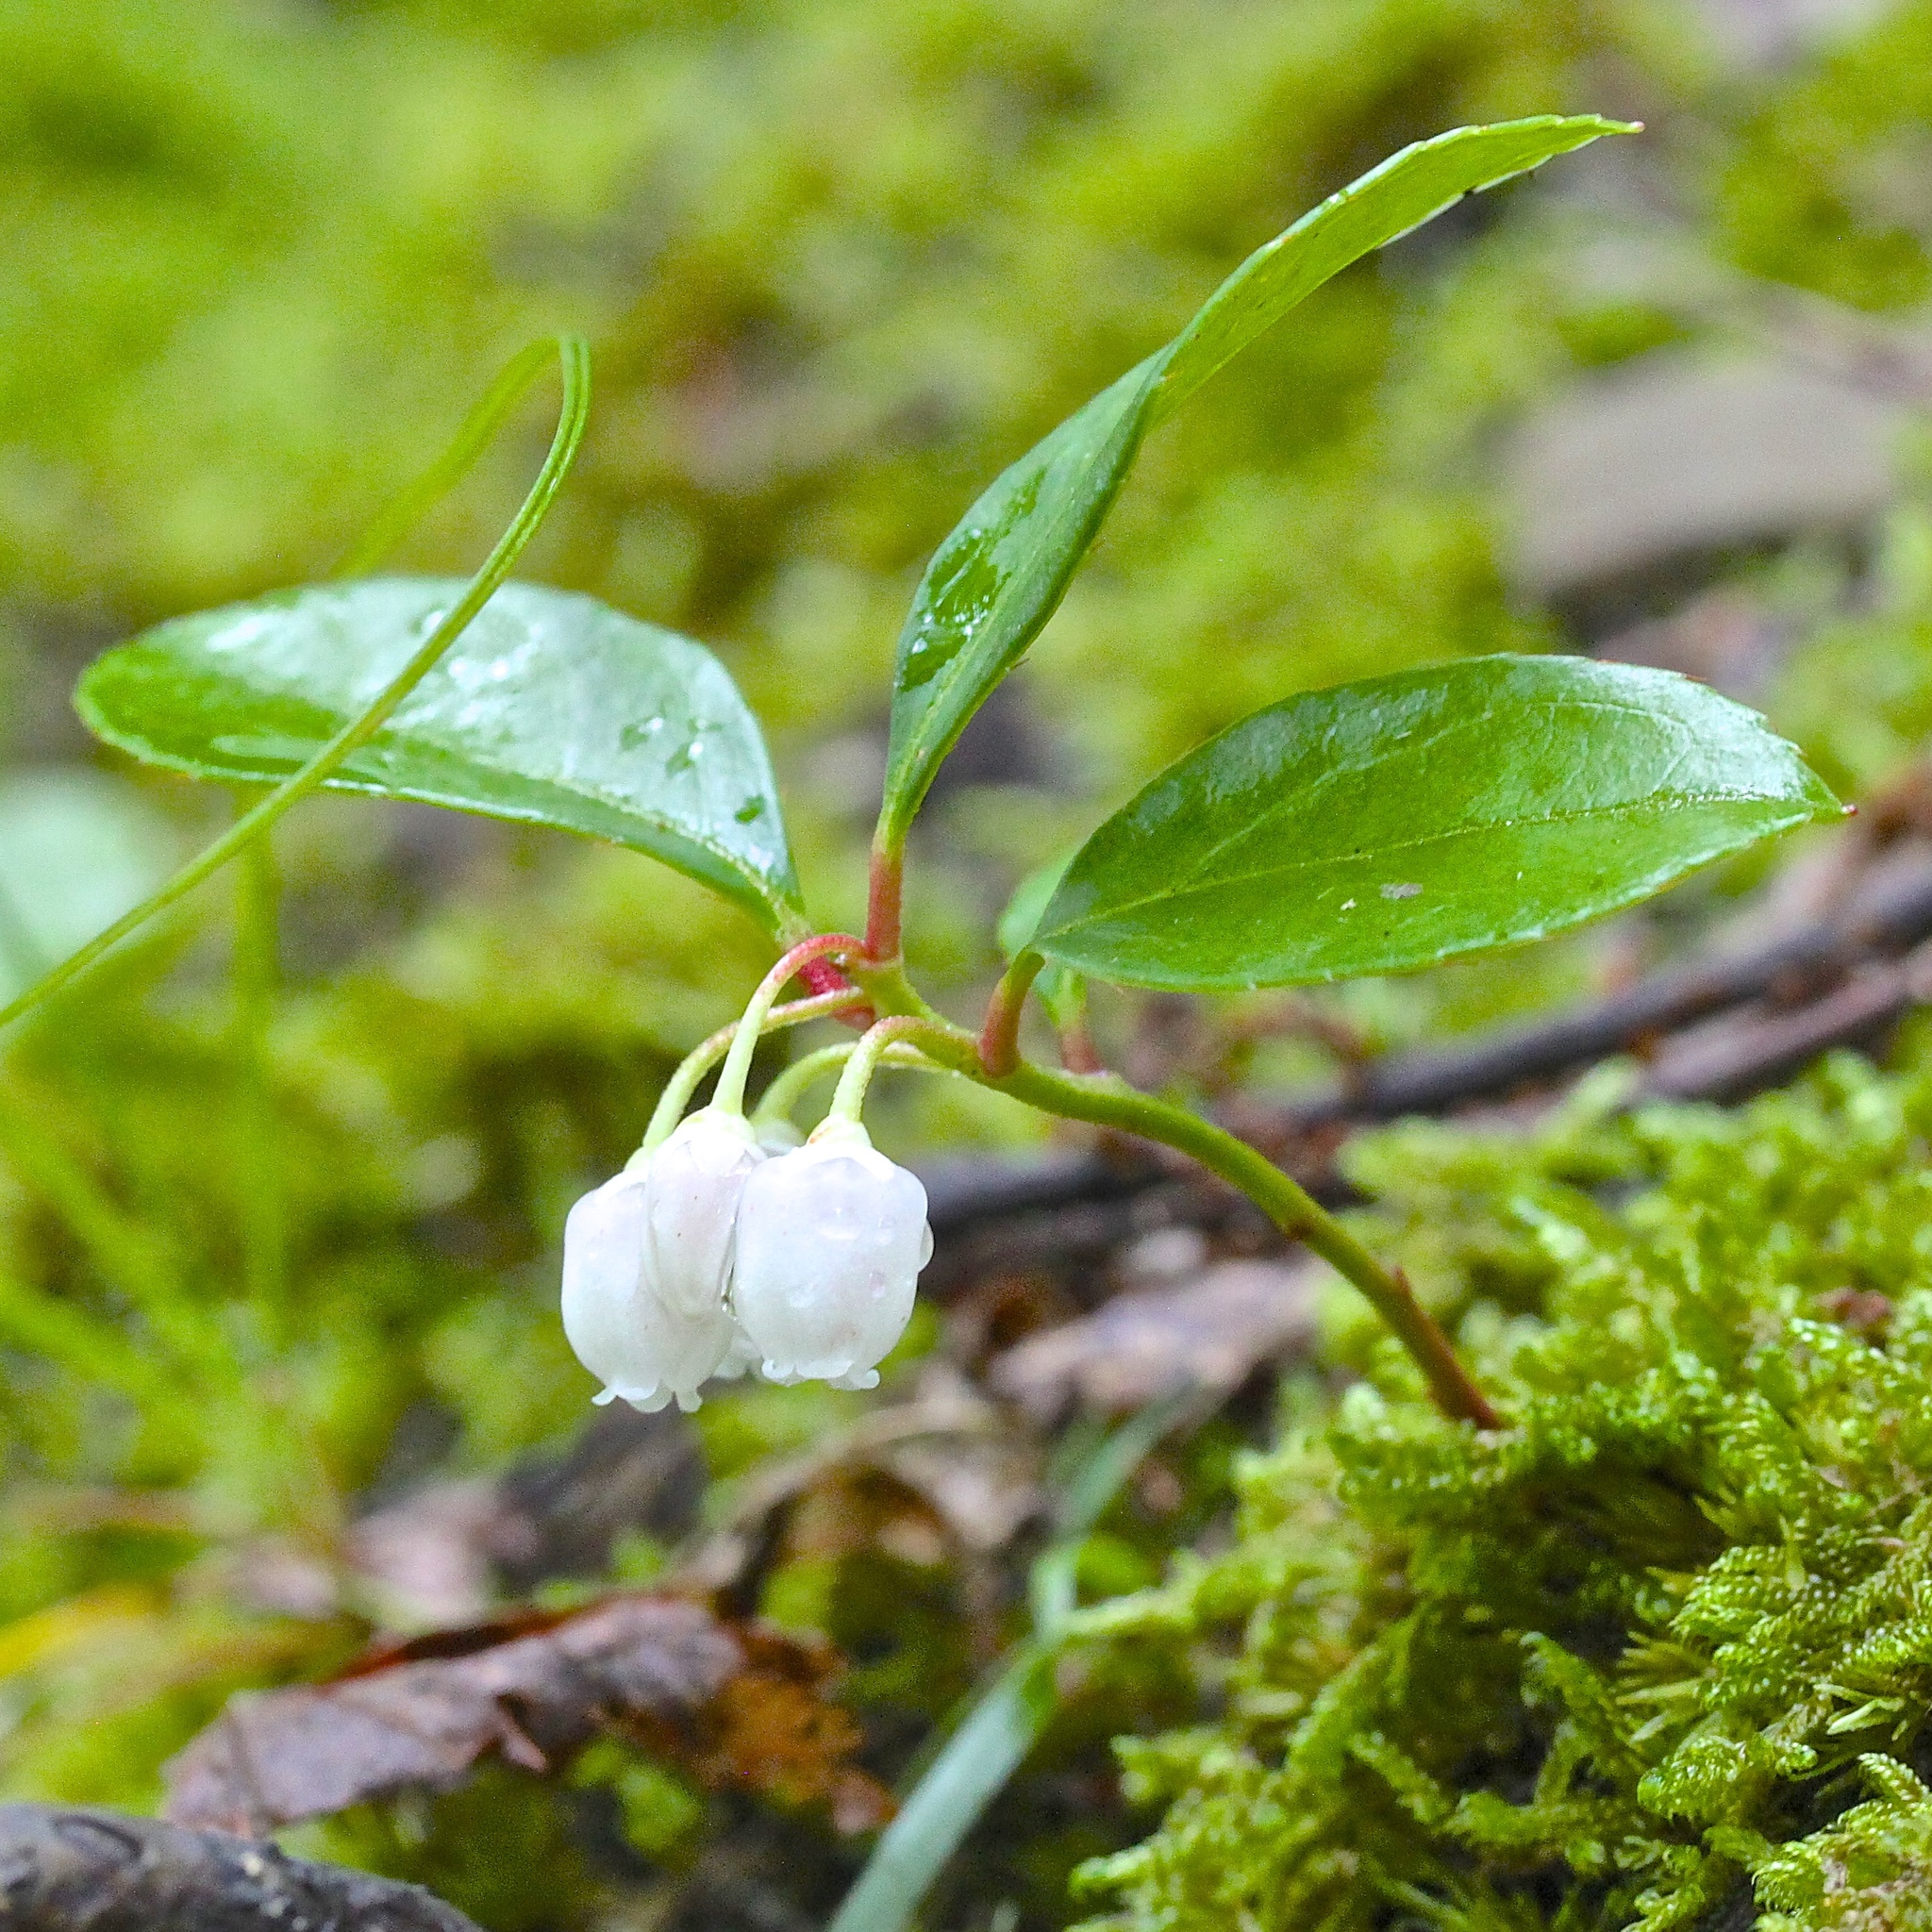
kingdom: Plantae
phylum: Tracheophyta
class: Magnoliopsida
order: Ericales
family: Ericaceae
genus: Gaultheria
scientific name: Gaultheria procumbens
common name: Checkerberry
